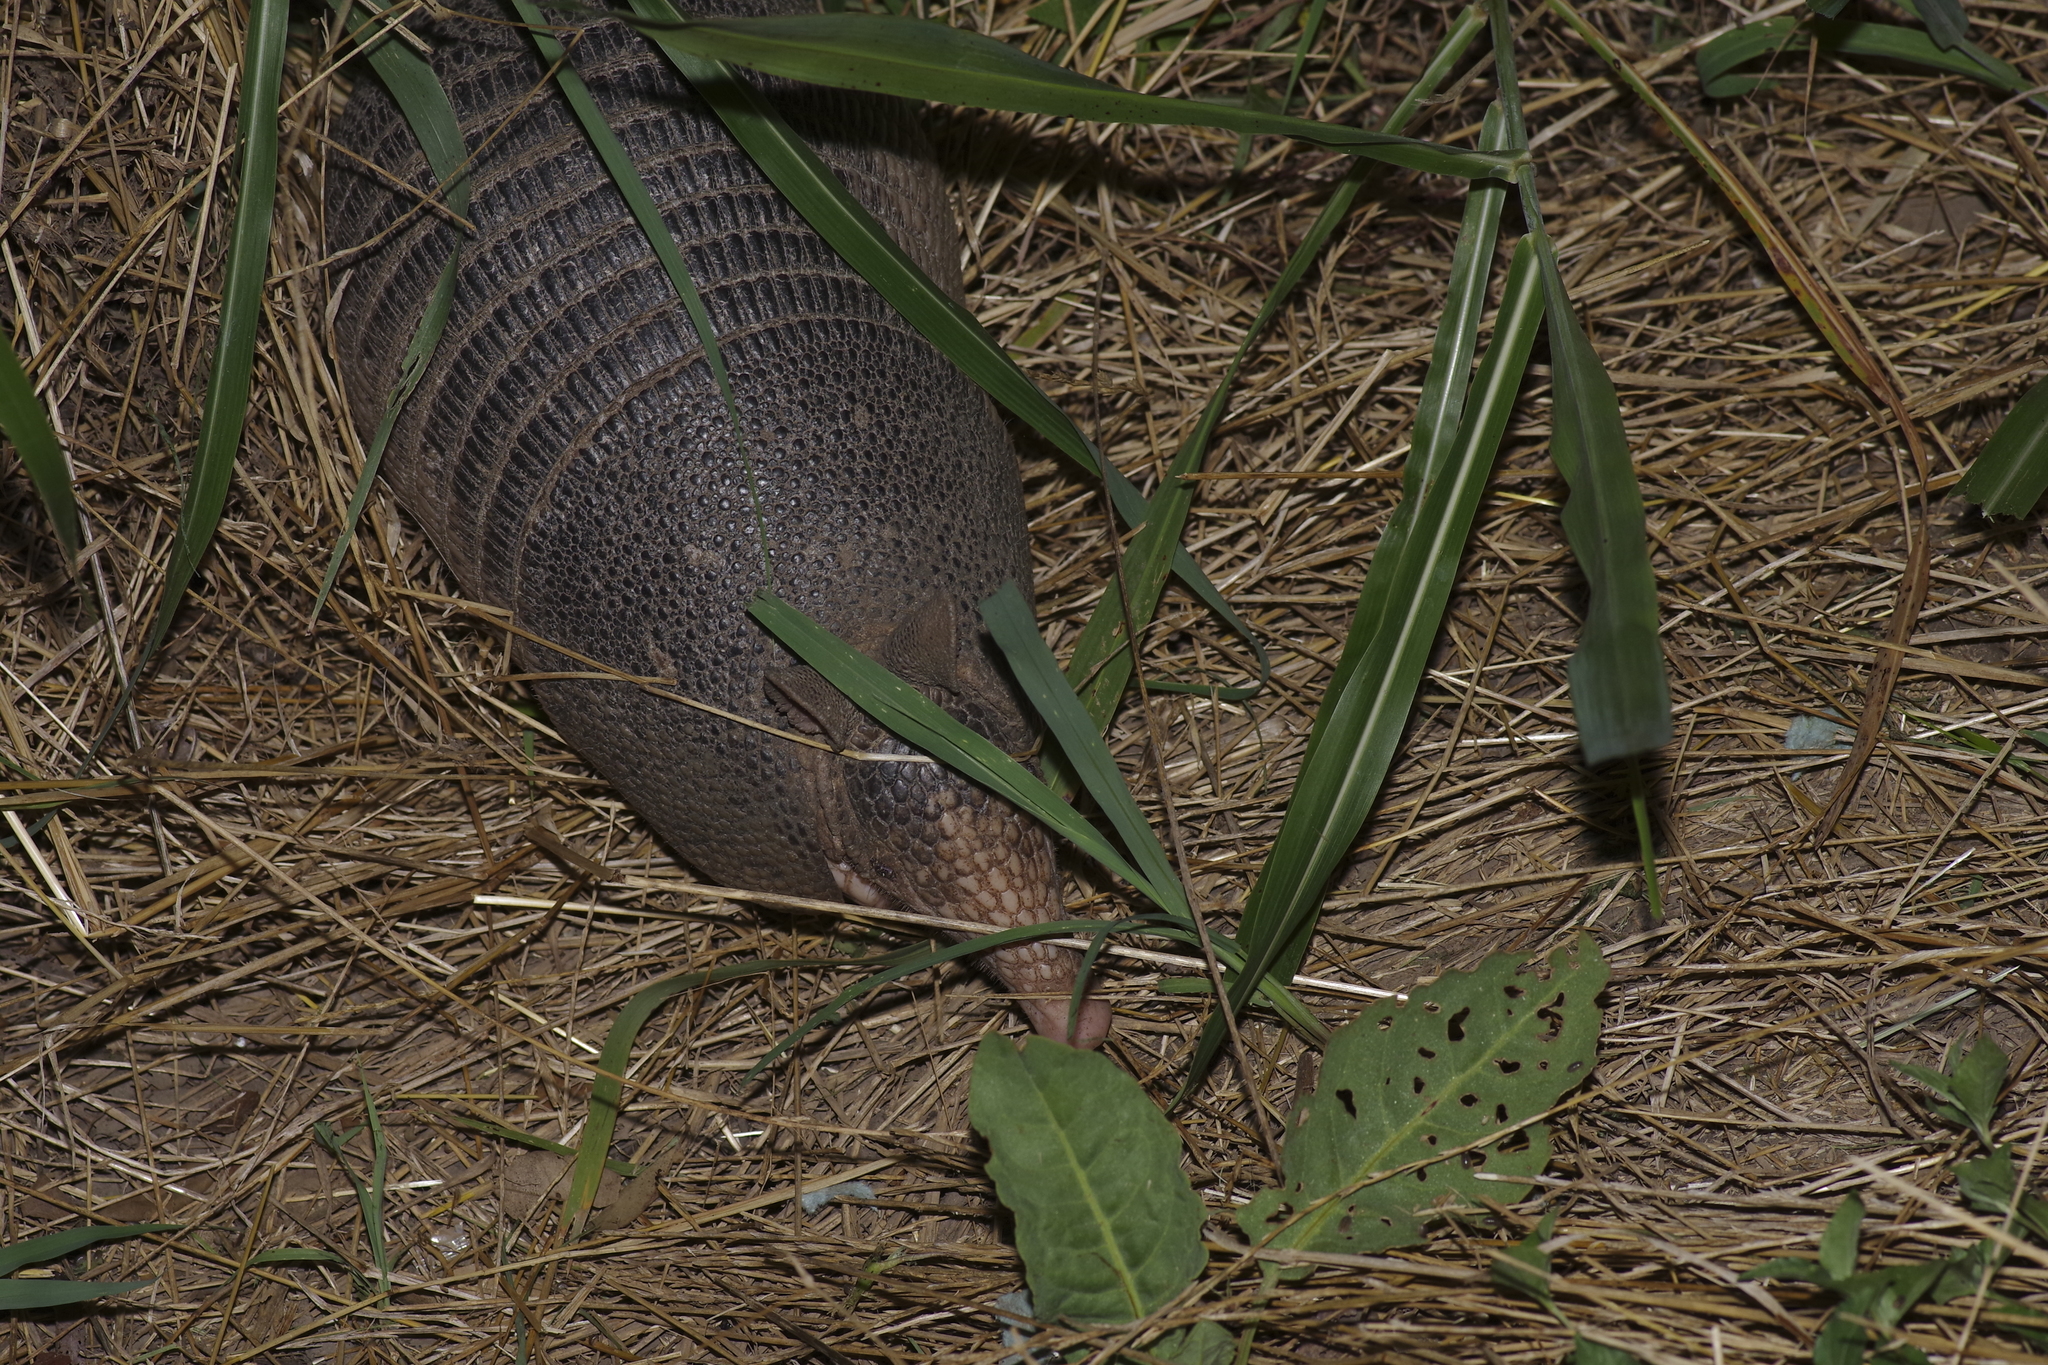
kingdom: Animalia
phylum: Chordata
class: Mammalia
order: Cingulata
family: Dasypodidae
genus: Dasypus
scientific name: Dasypus novemcinctus
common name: Nine-banded armadillo
